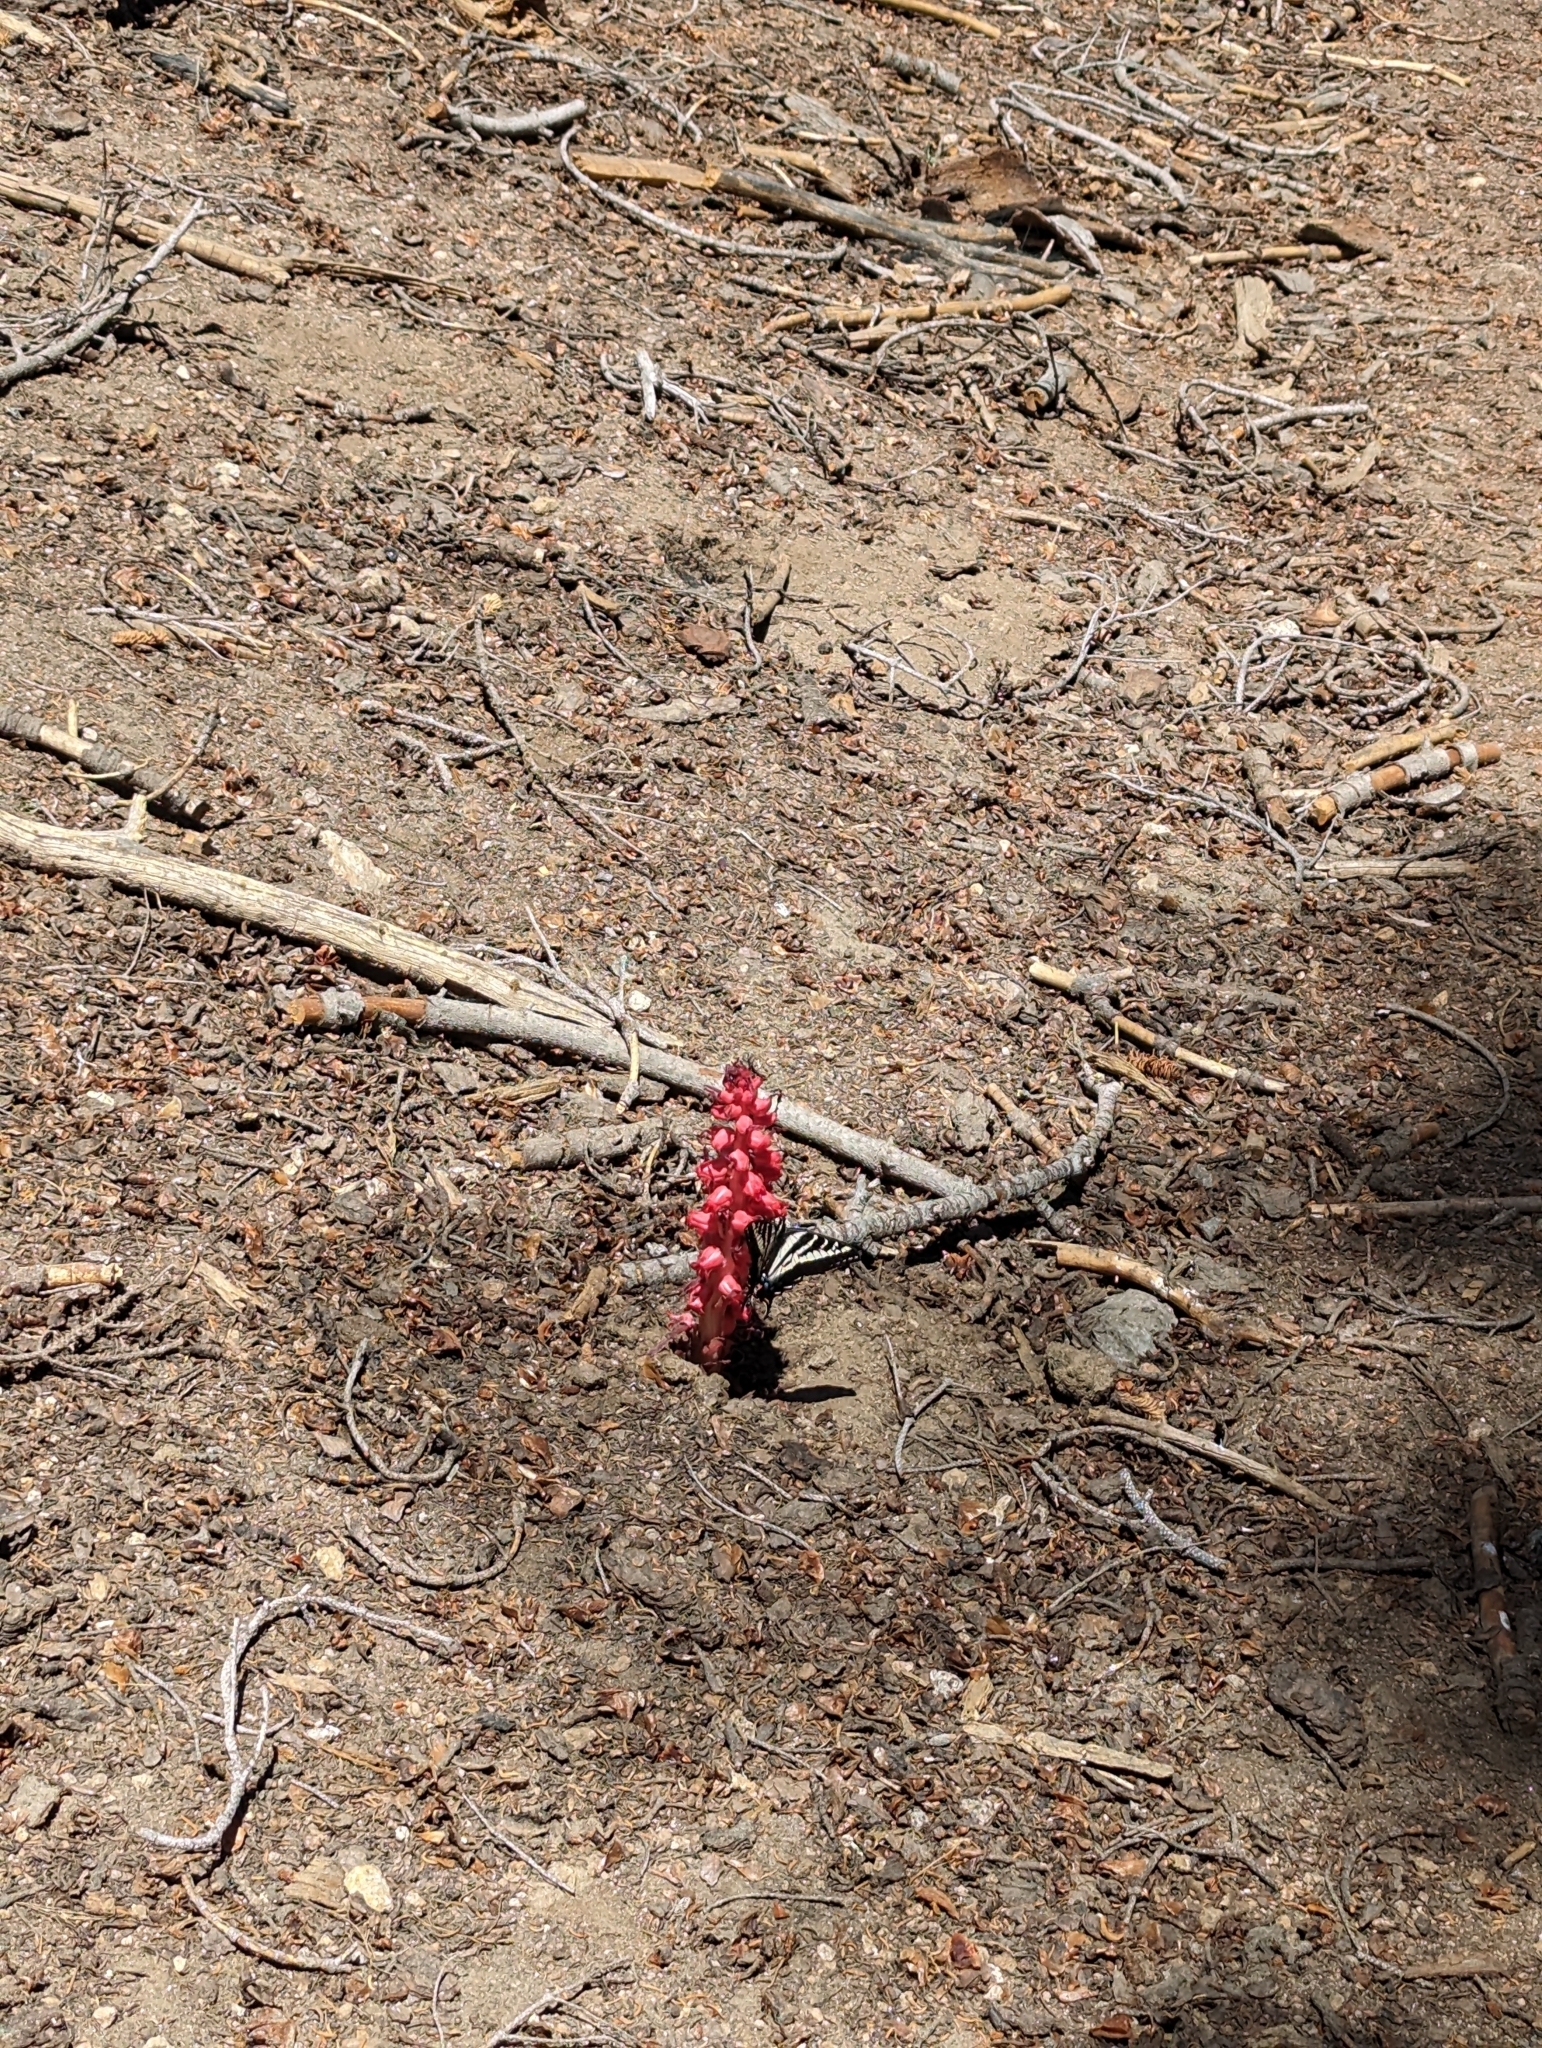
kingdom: Plantae
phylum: Tracheophyta
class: Magnoliopsida
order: Ericales
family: Ericaceae
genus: Sarcodes
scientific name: Sarcodes sanguinea
